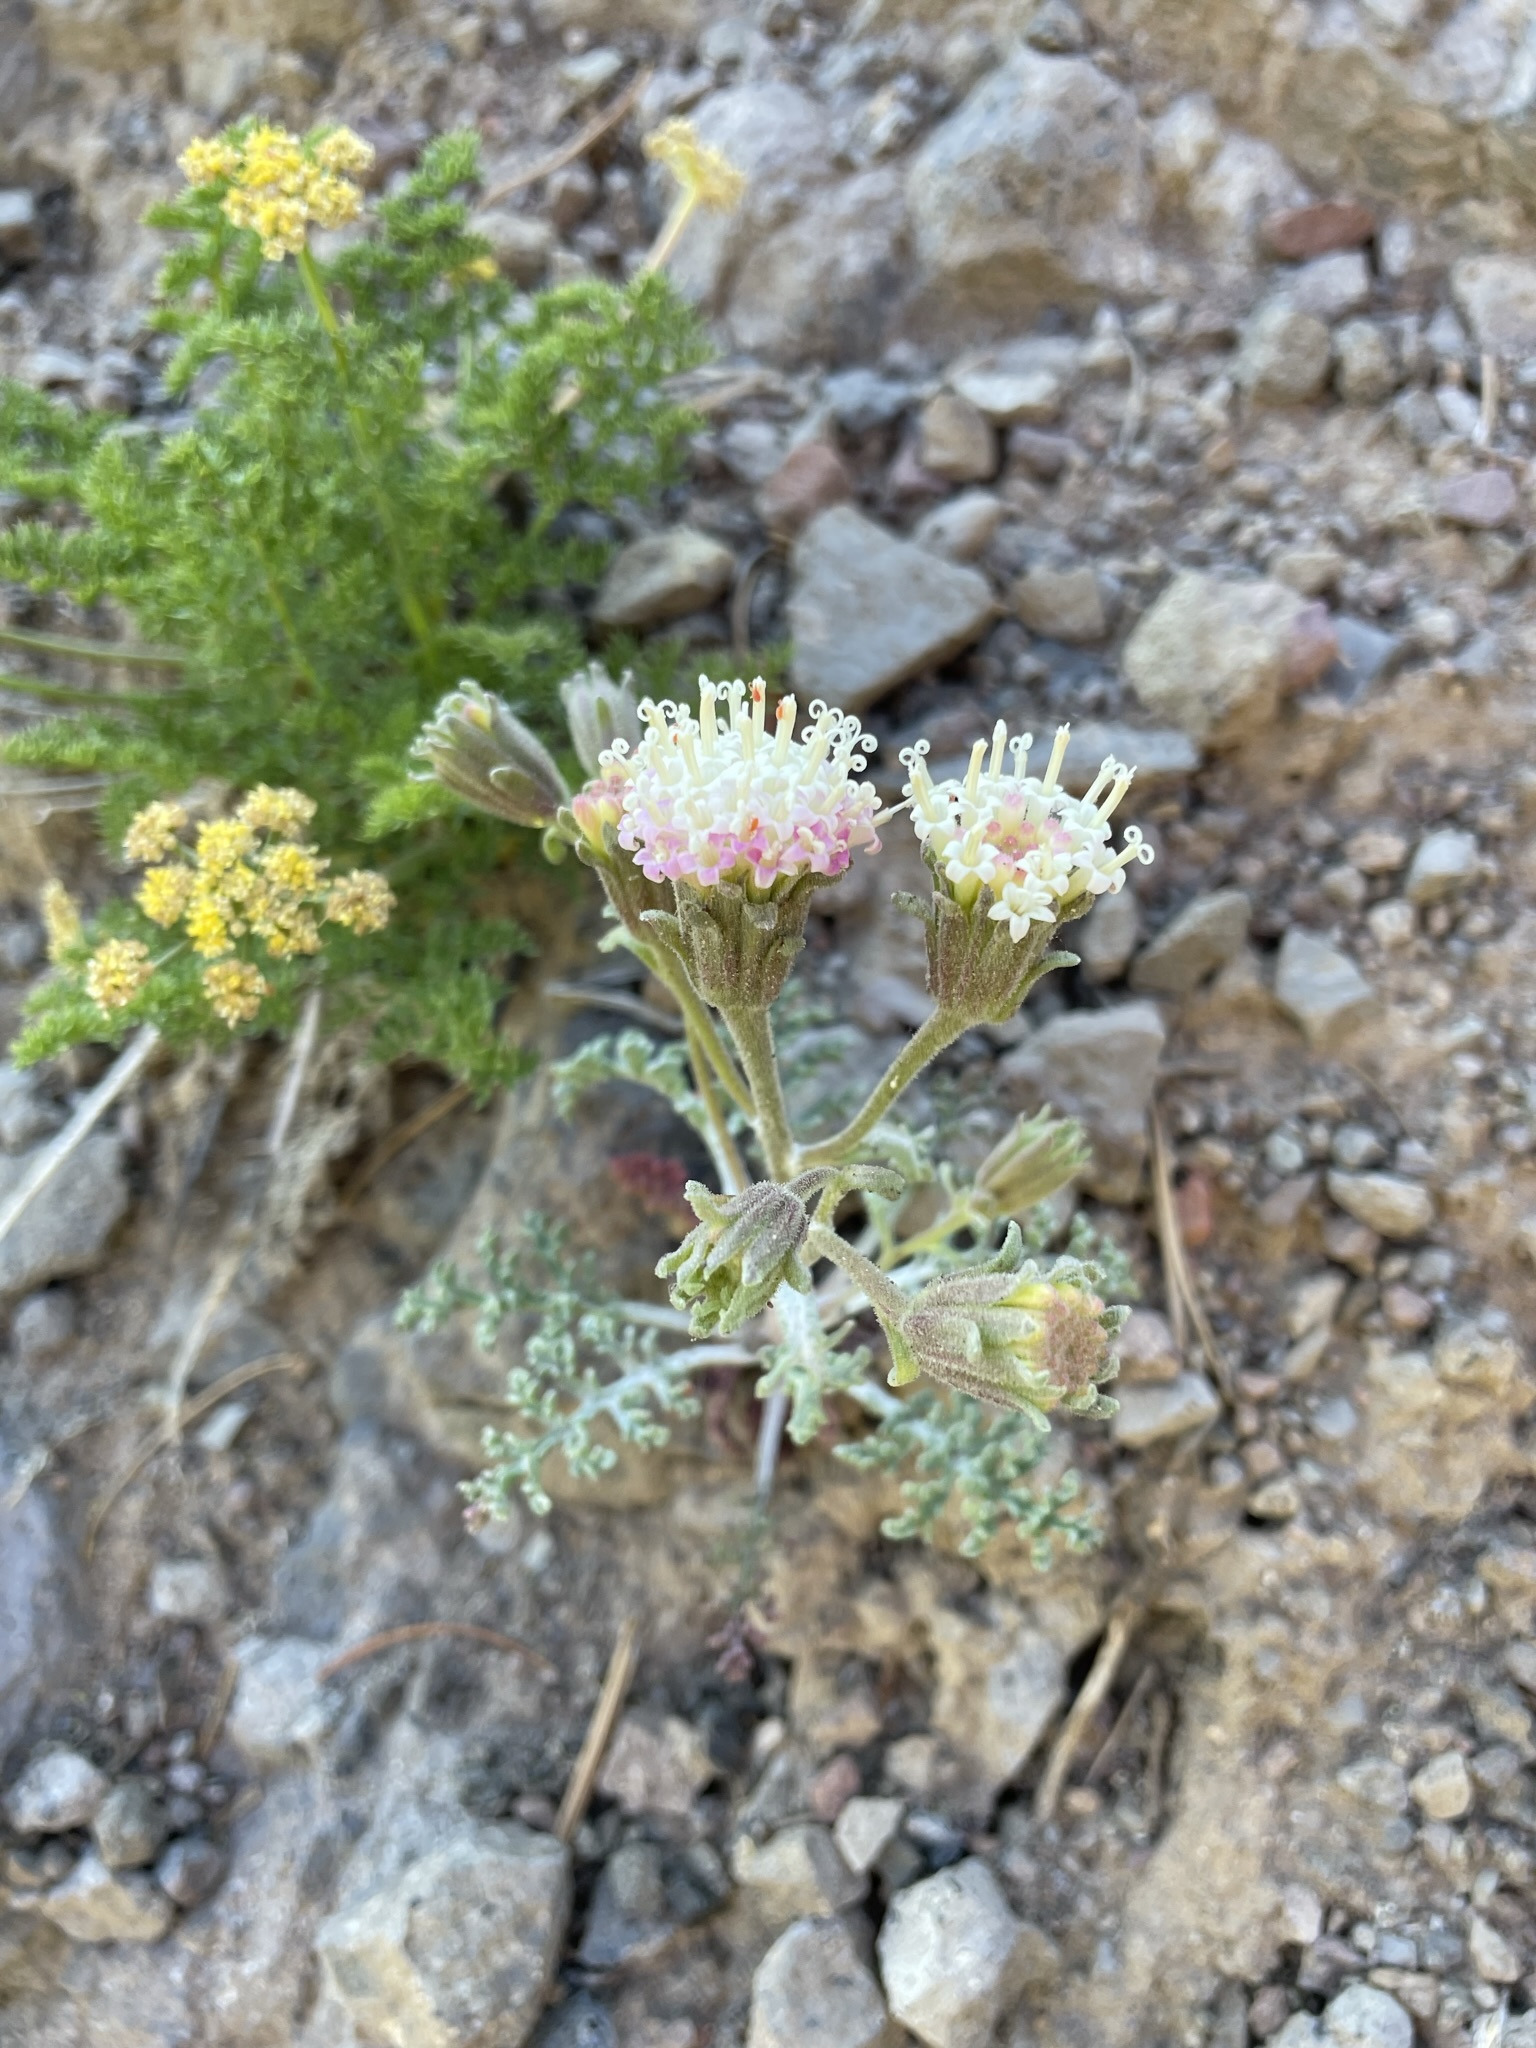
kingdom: Plantae
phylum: Tracheophyta
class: Magnoliopsida
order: Asterales
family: Asteraceae
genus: Chaenactis
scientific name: Chaenactis douglasii
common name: Hoary pincushion
